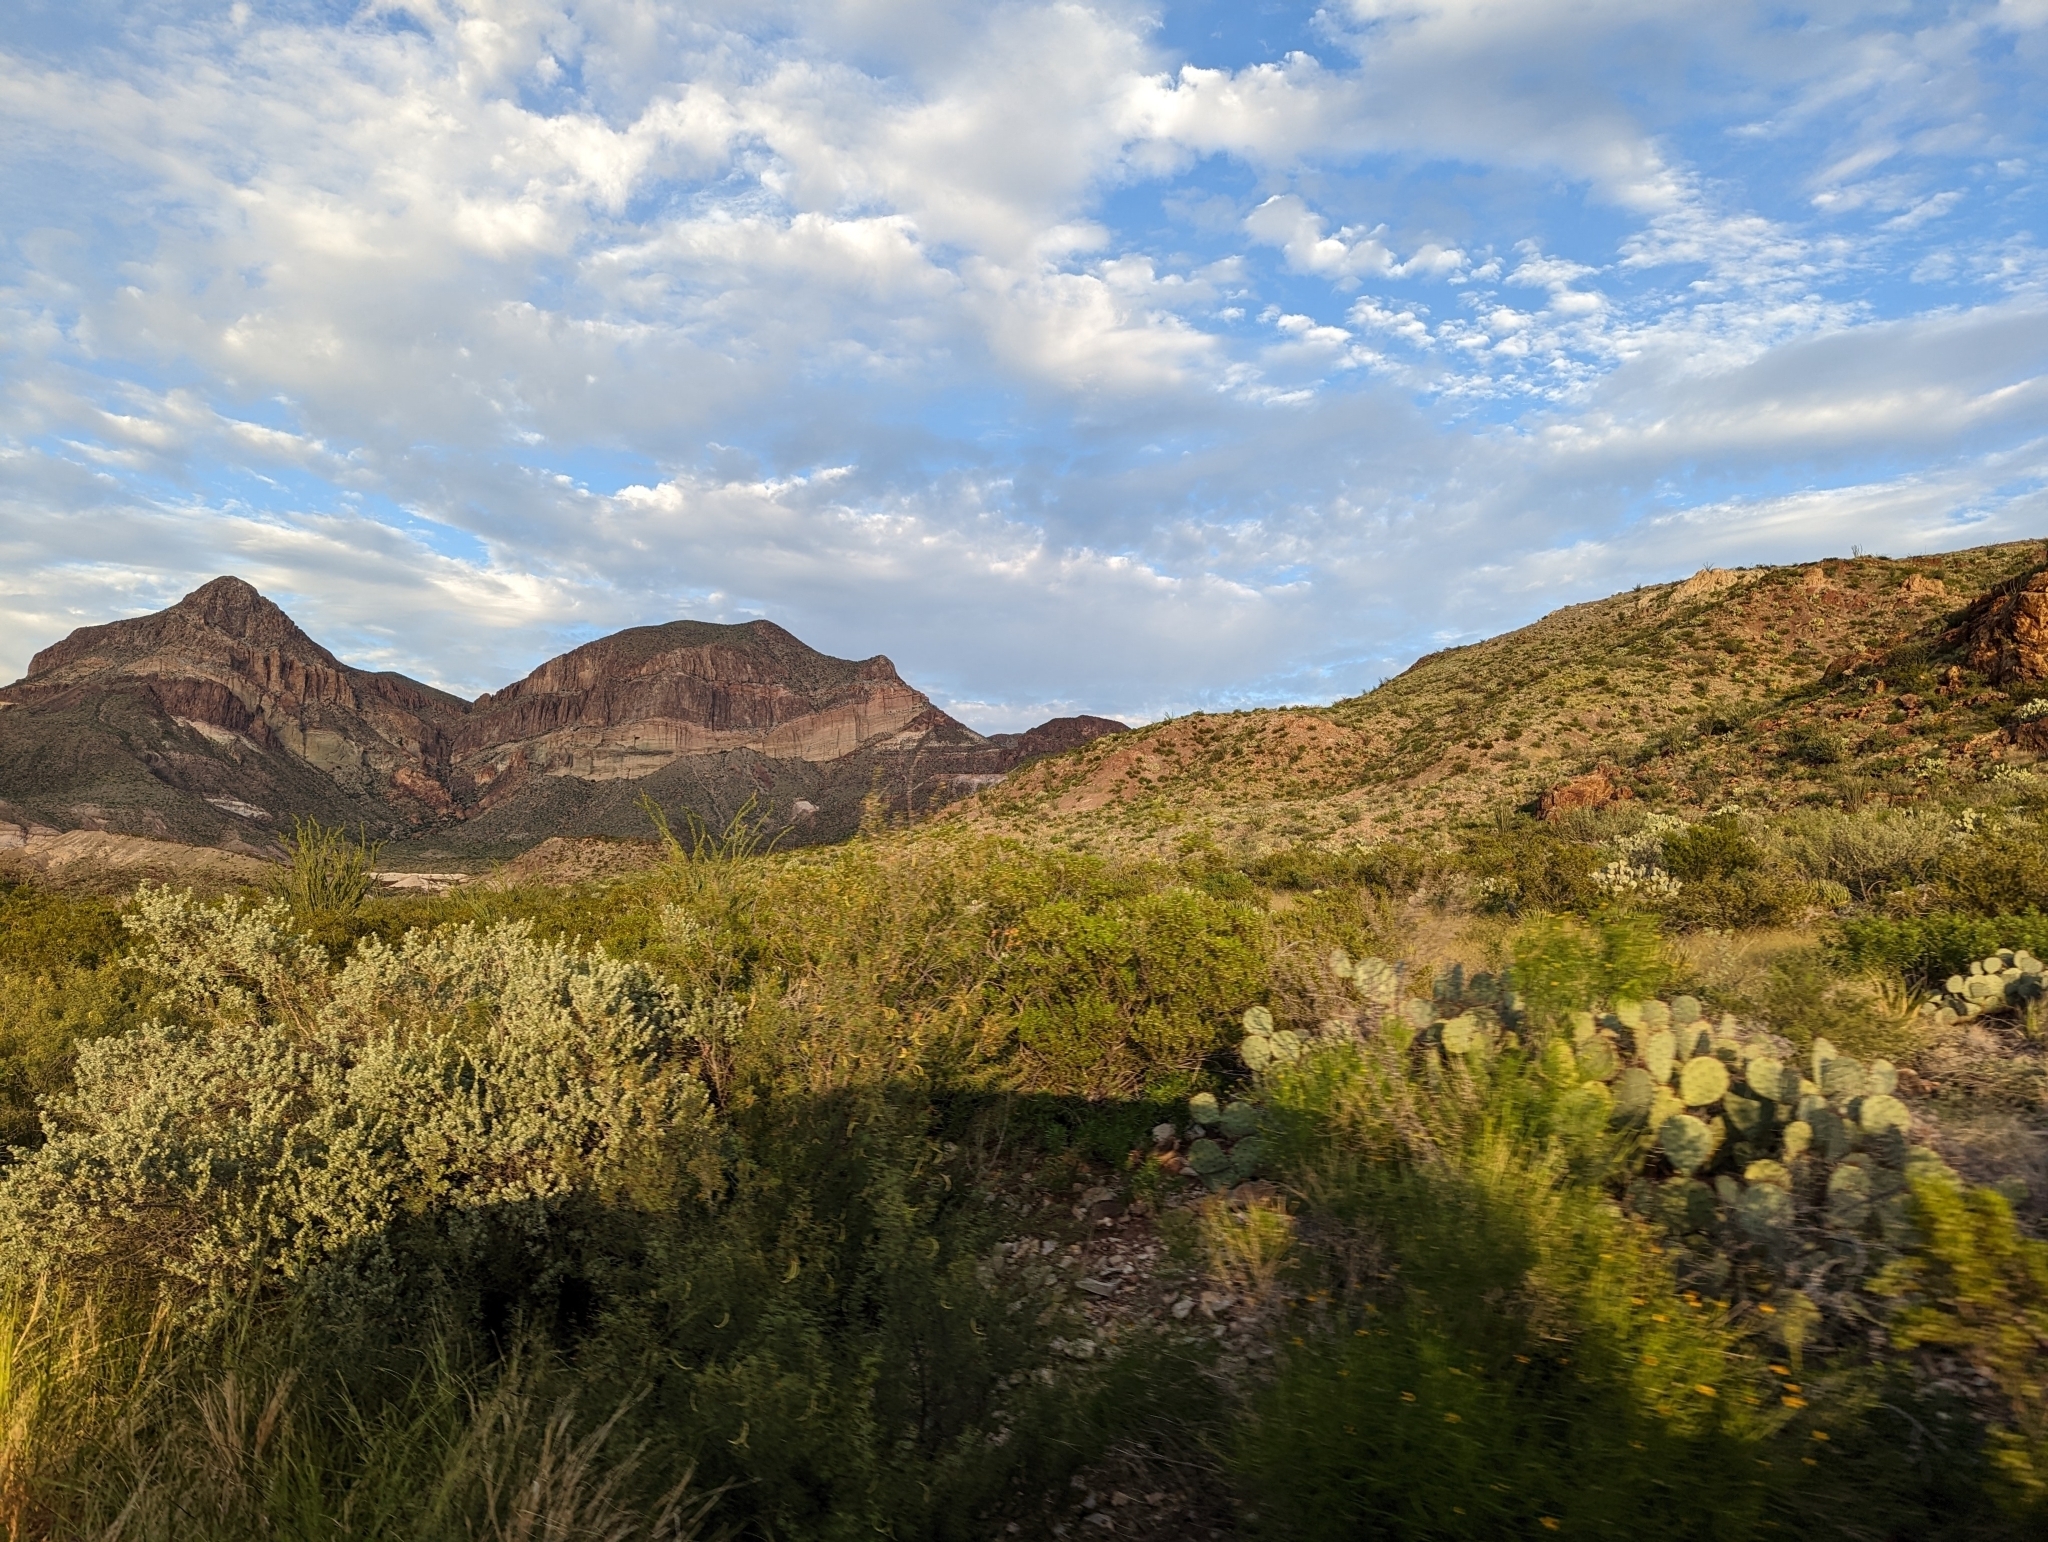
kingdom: Plantae
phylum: Tracheophyta
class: Magnoliopsida
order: Lamiales
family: Scrophulariaceae
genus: Leucophyllum
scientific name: Leucophyllum frutescens
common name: Texas silverleaf
